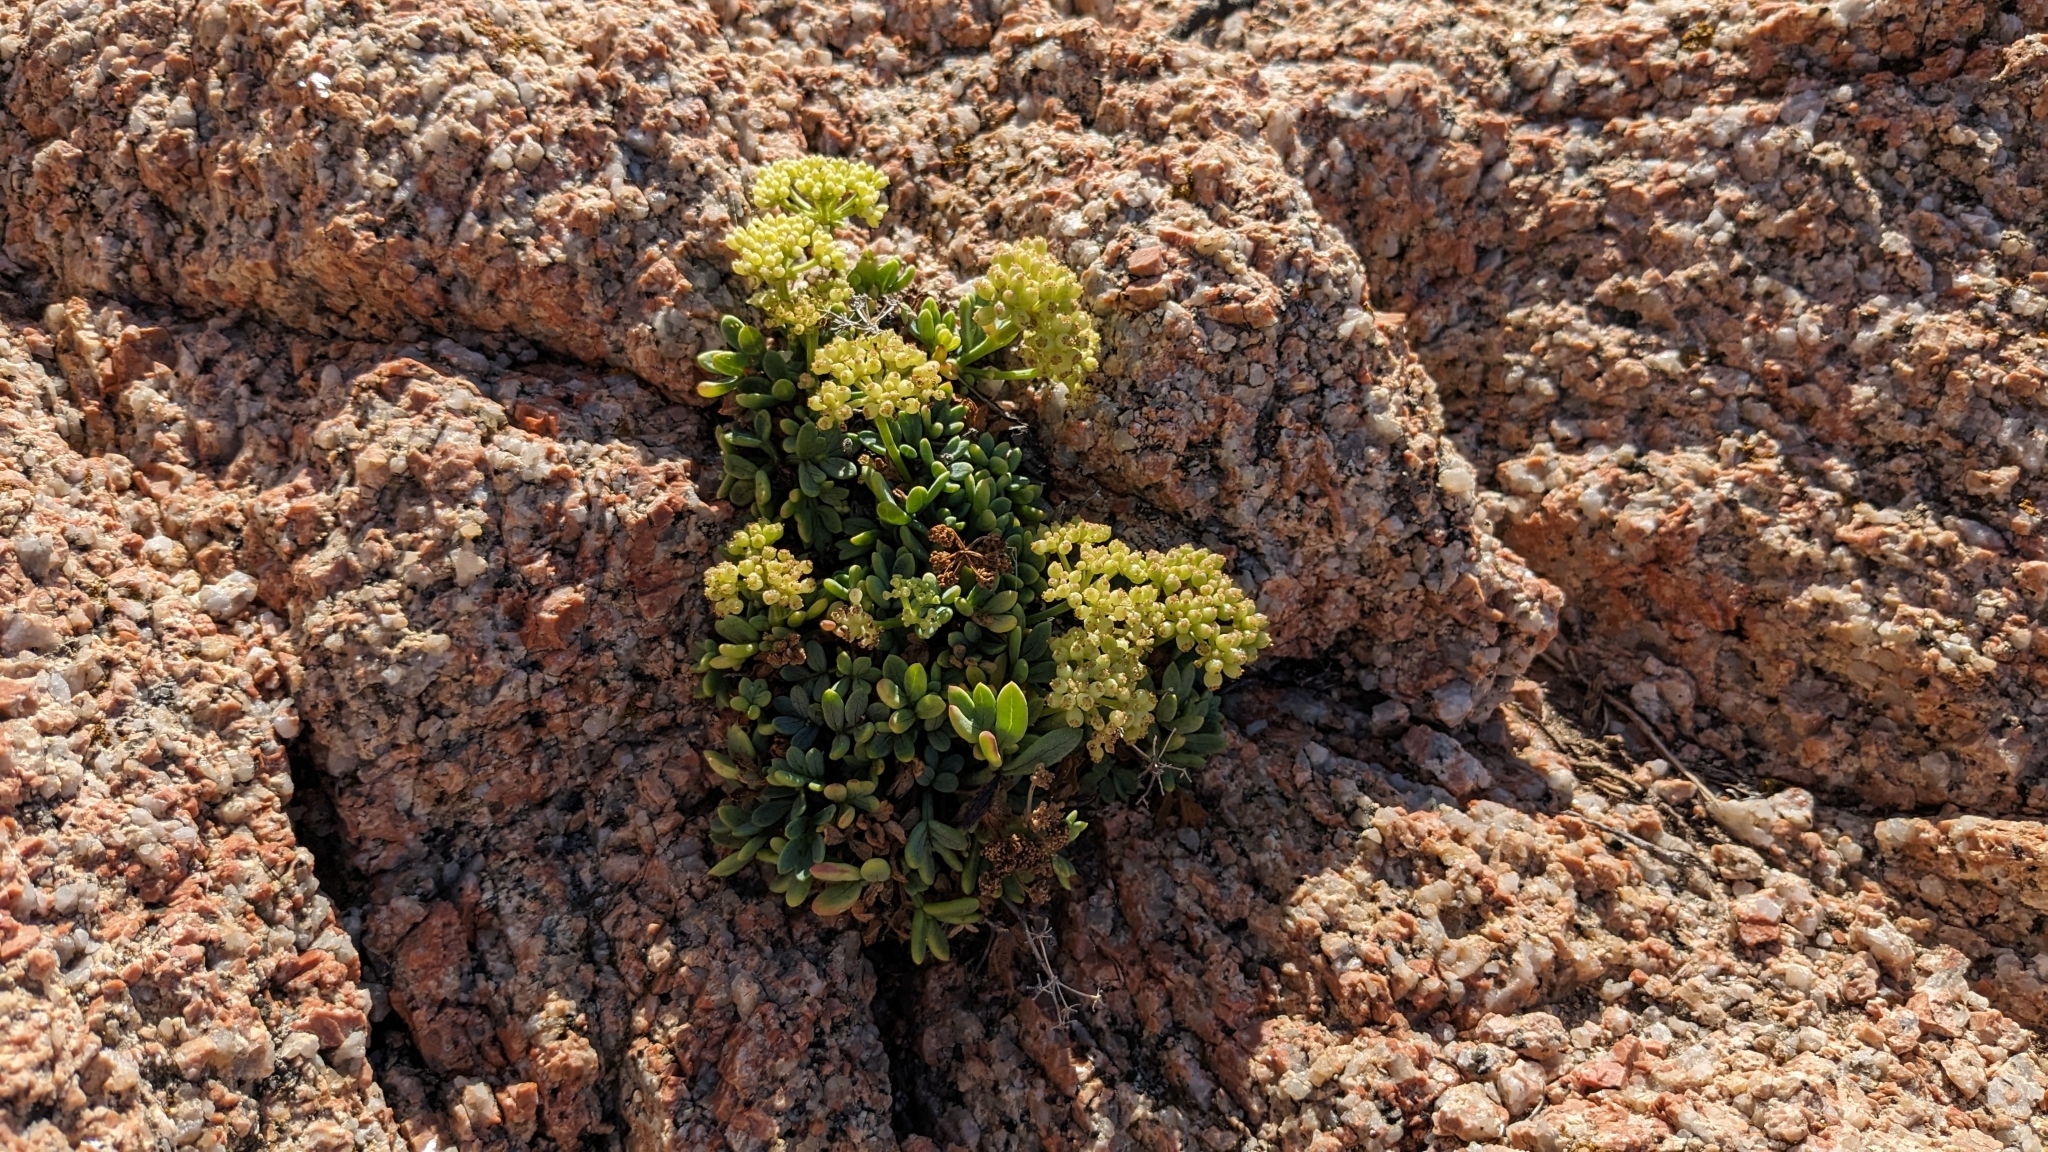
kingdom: Plantae
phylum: Tracheophyta
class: Magnoliopsida
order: Apiales
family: Apiaceae
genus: Crithmum
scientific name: Crithmum maritimum
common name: Rock samphire
